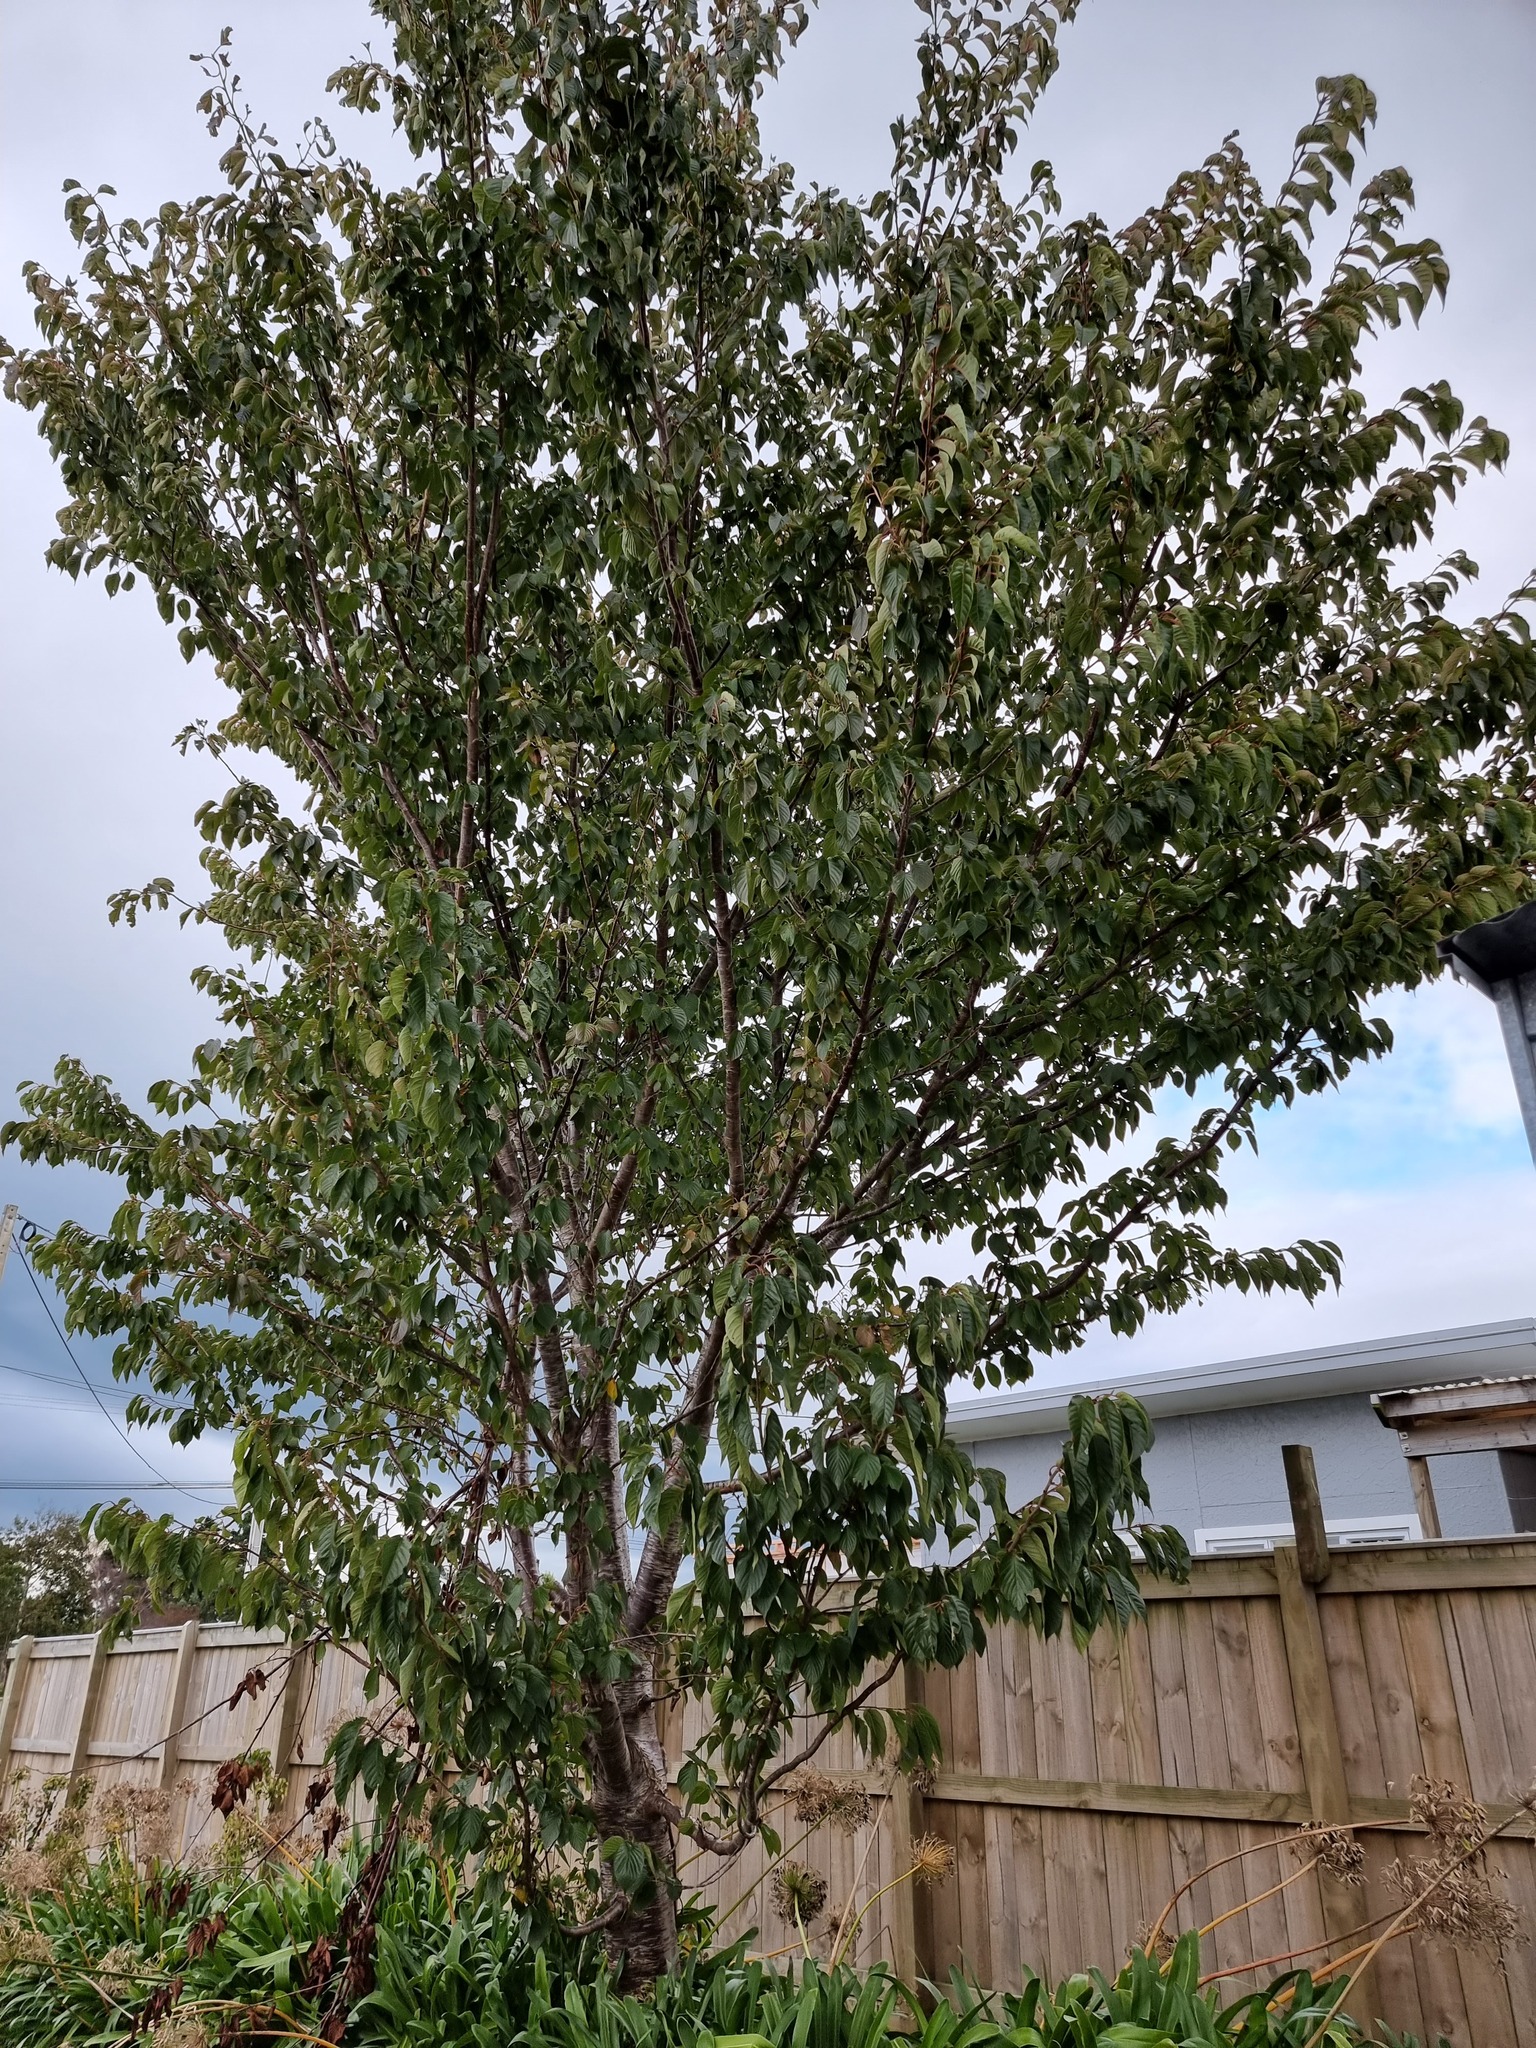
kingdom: Plantae
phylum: Tracheophyta
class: Magnoliopsida
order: Rosales
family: Rosaceae
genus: Prunus
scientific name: Prunus serrulata
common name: Japanese cherry
